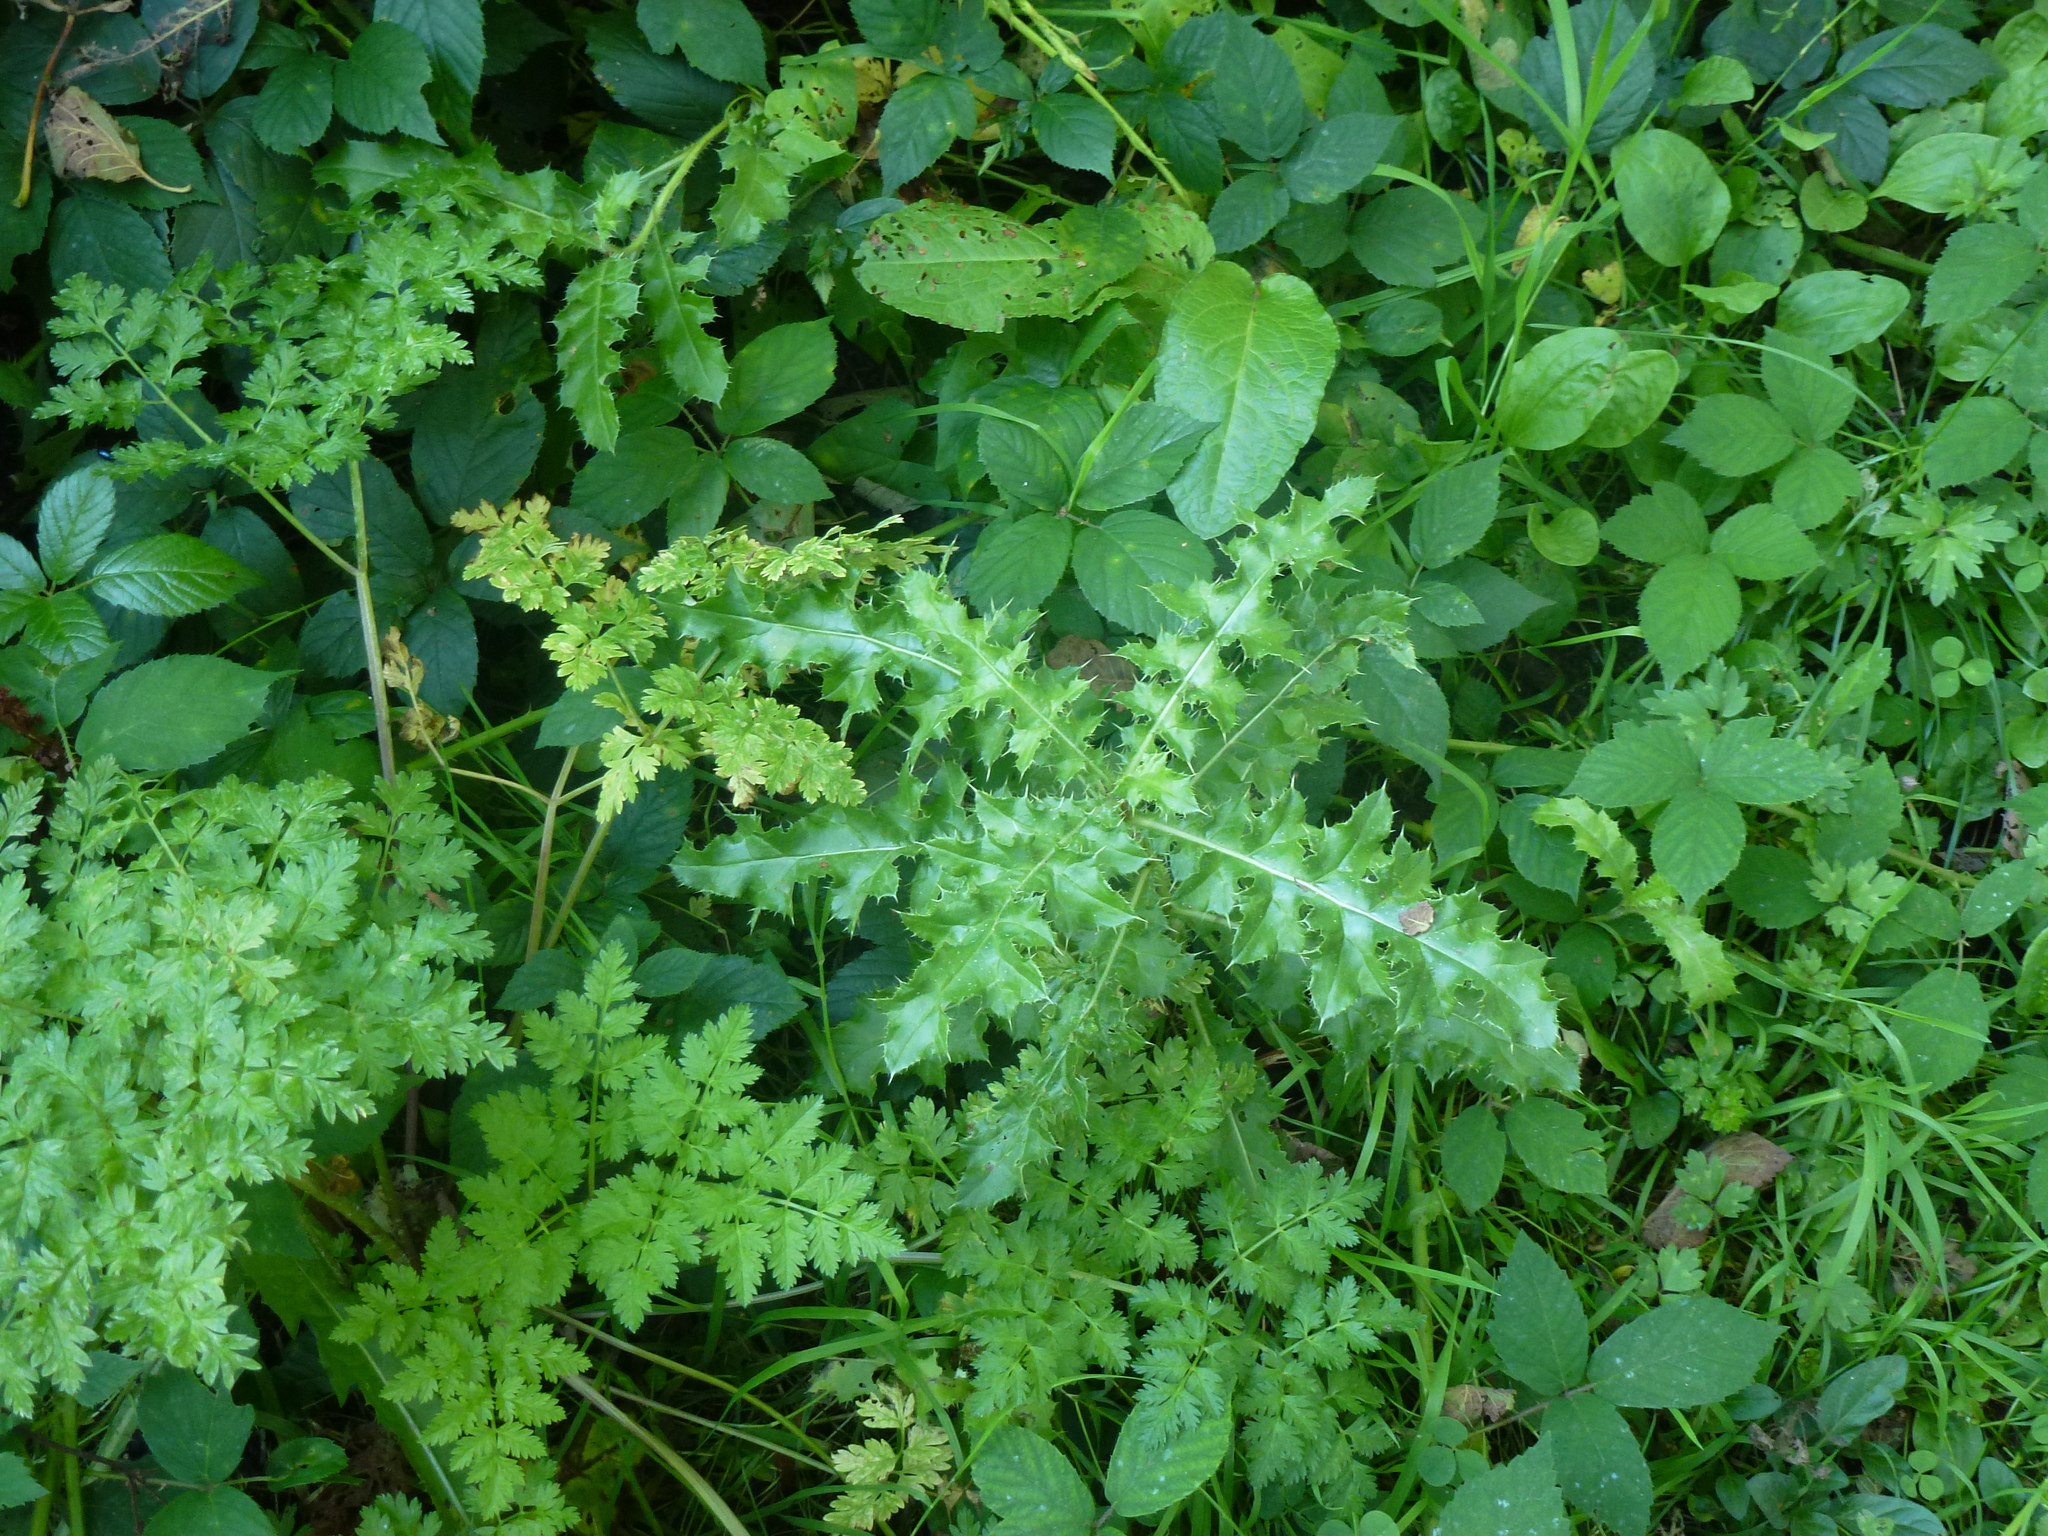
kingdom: Plantae
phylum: Tracheophyta
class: Magnoliopsida
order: Asterales
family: Asteraceae
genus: Cirsium
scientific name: Cirsium arvense
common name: Creeping thistle
